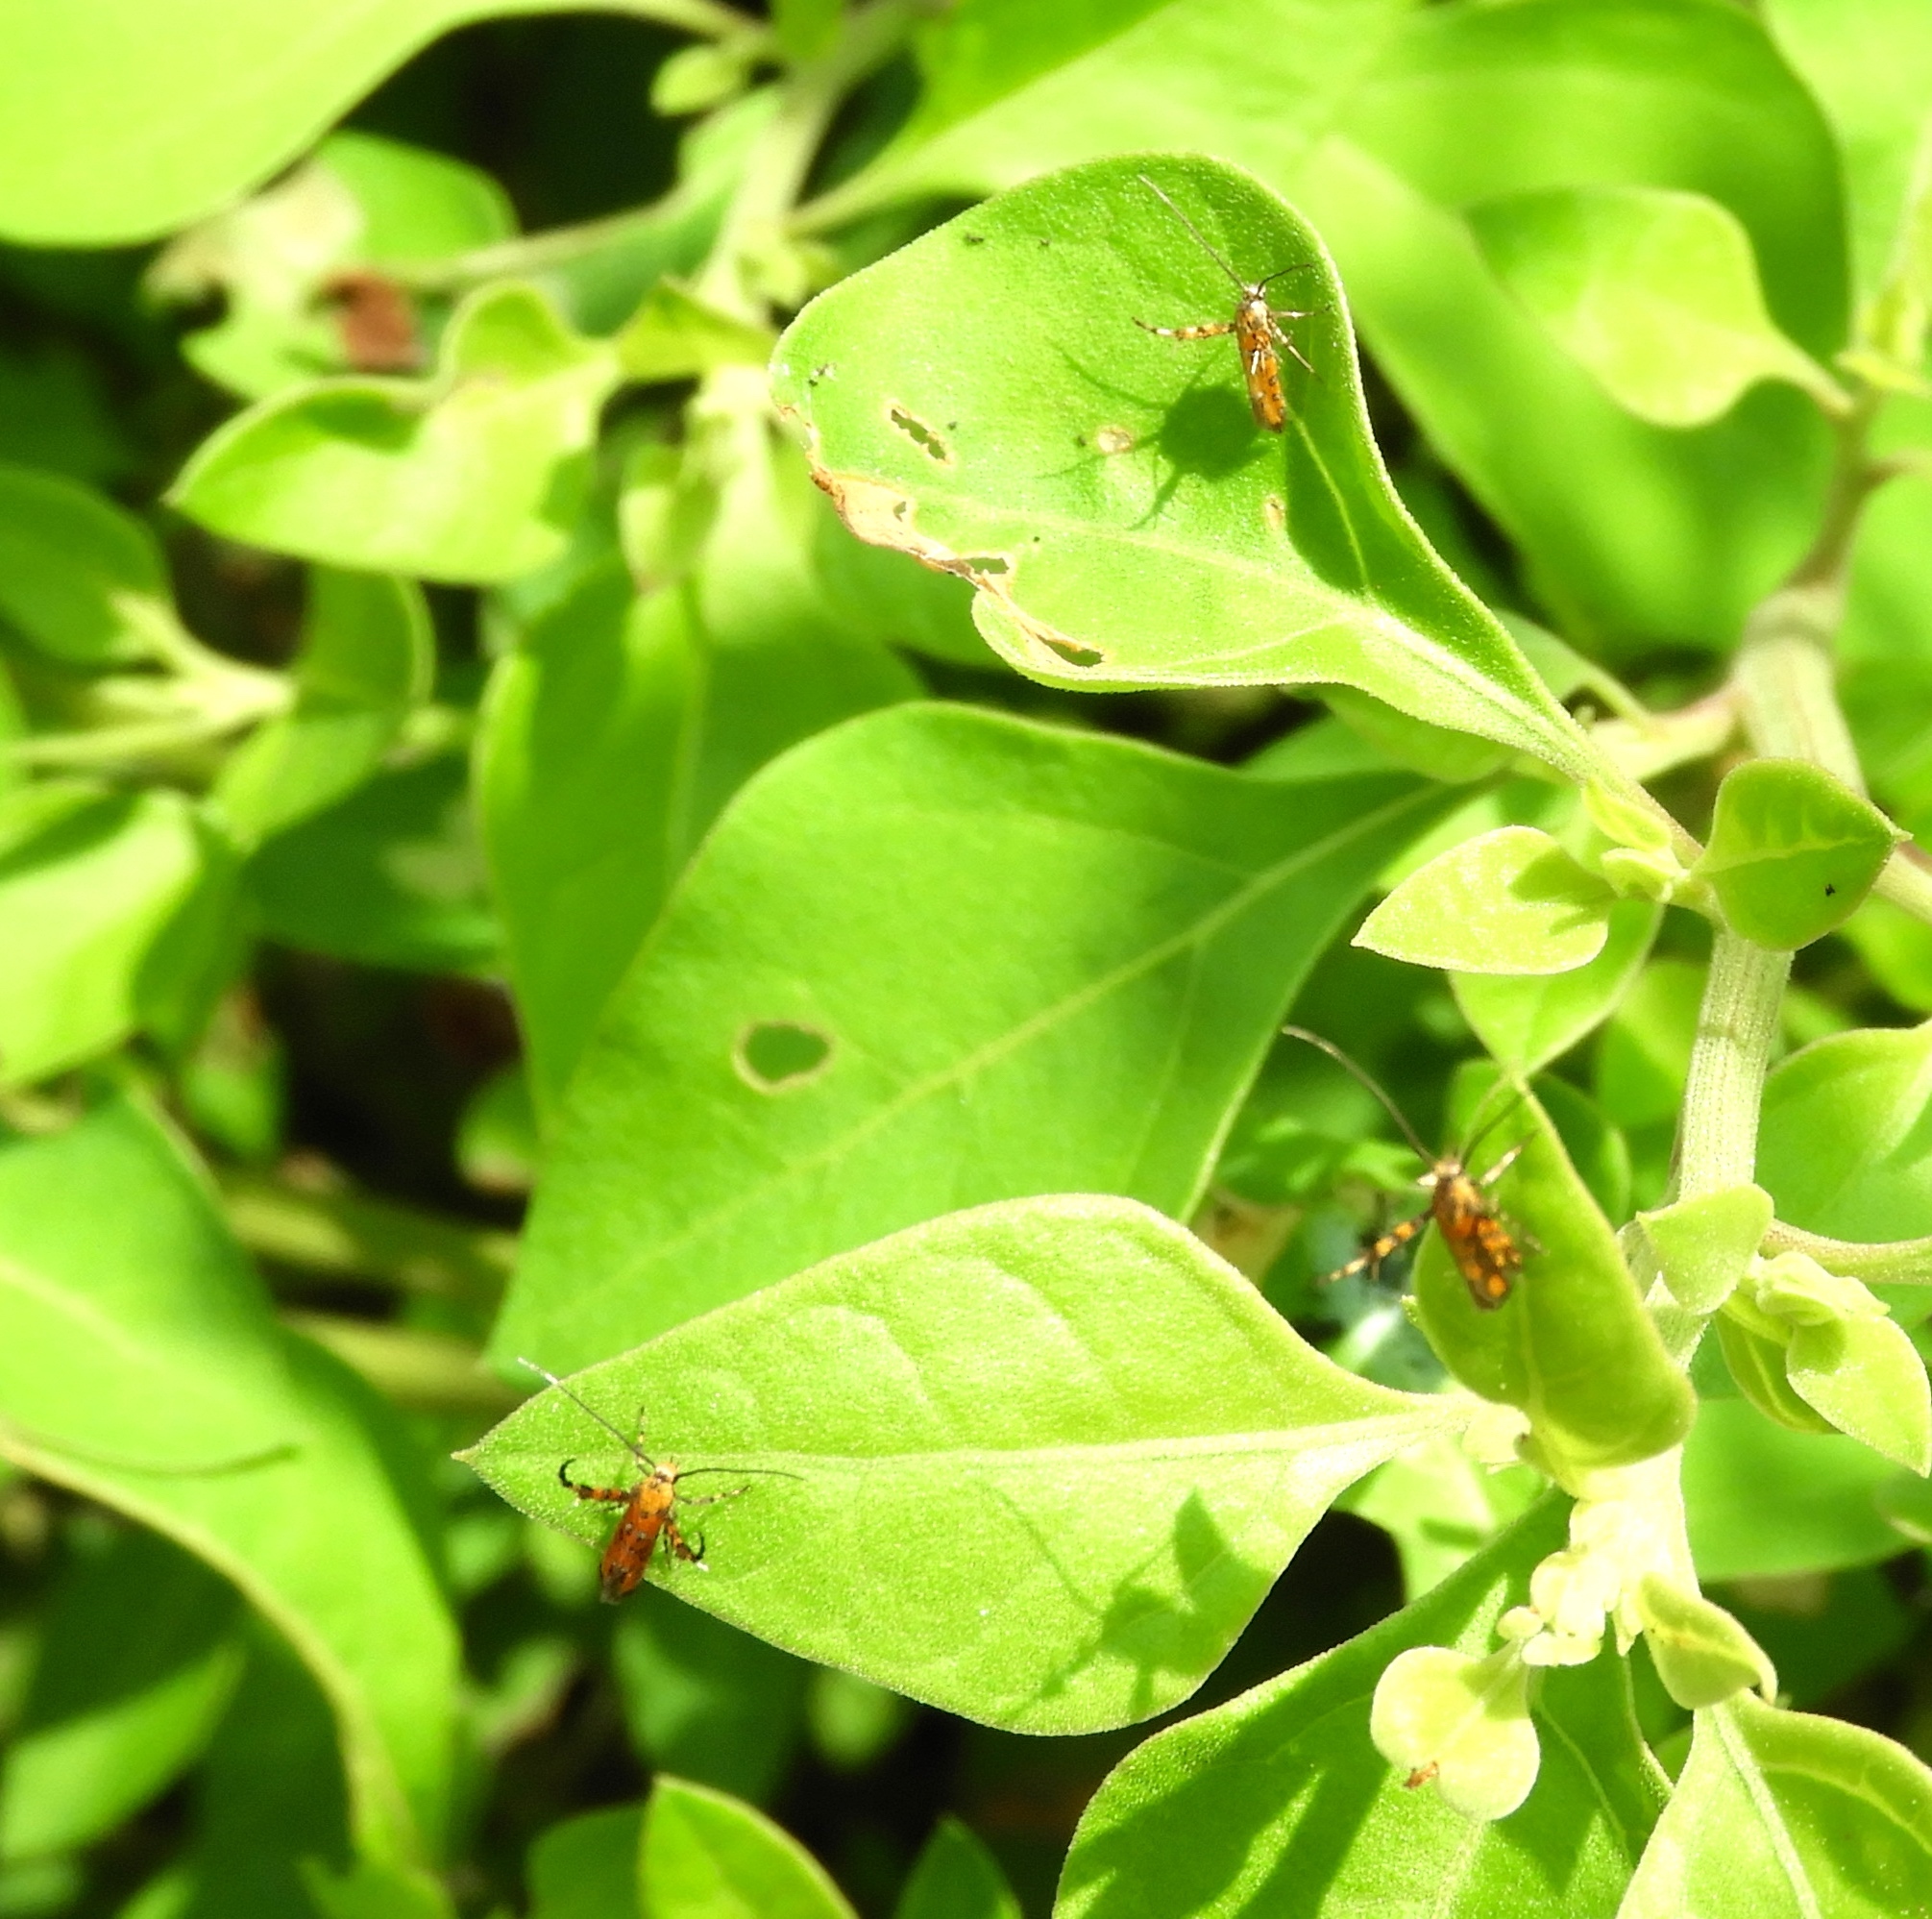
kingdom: Animalia
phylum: Arthropoda
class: Insecta
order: Lepidoptera
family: Heliodinidae
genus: Heliodines
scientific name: Heliodines
